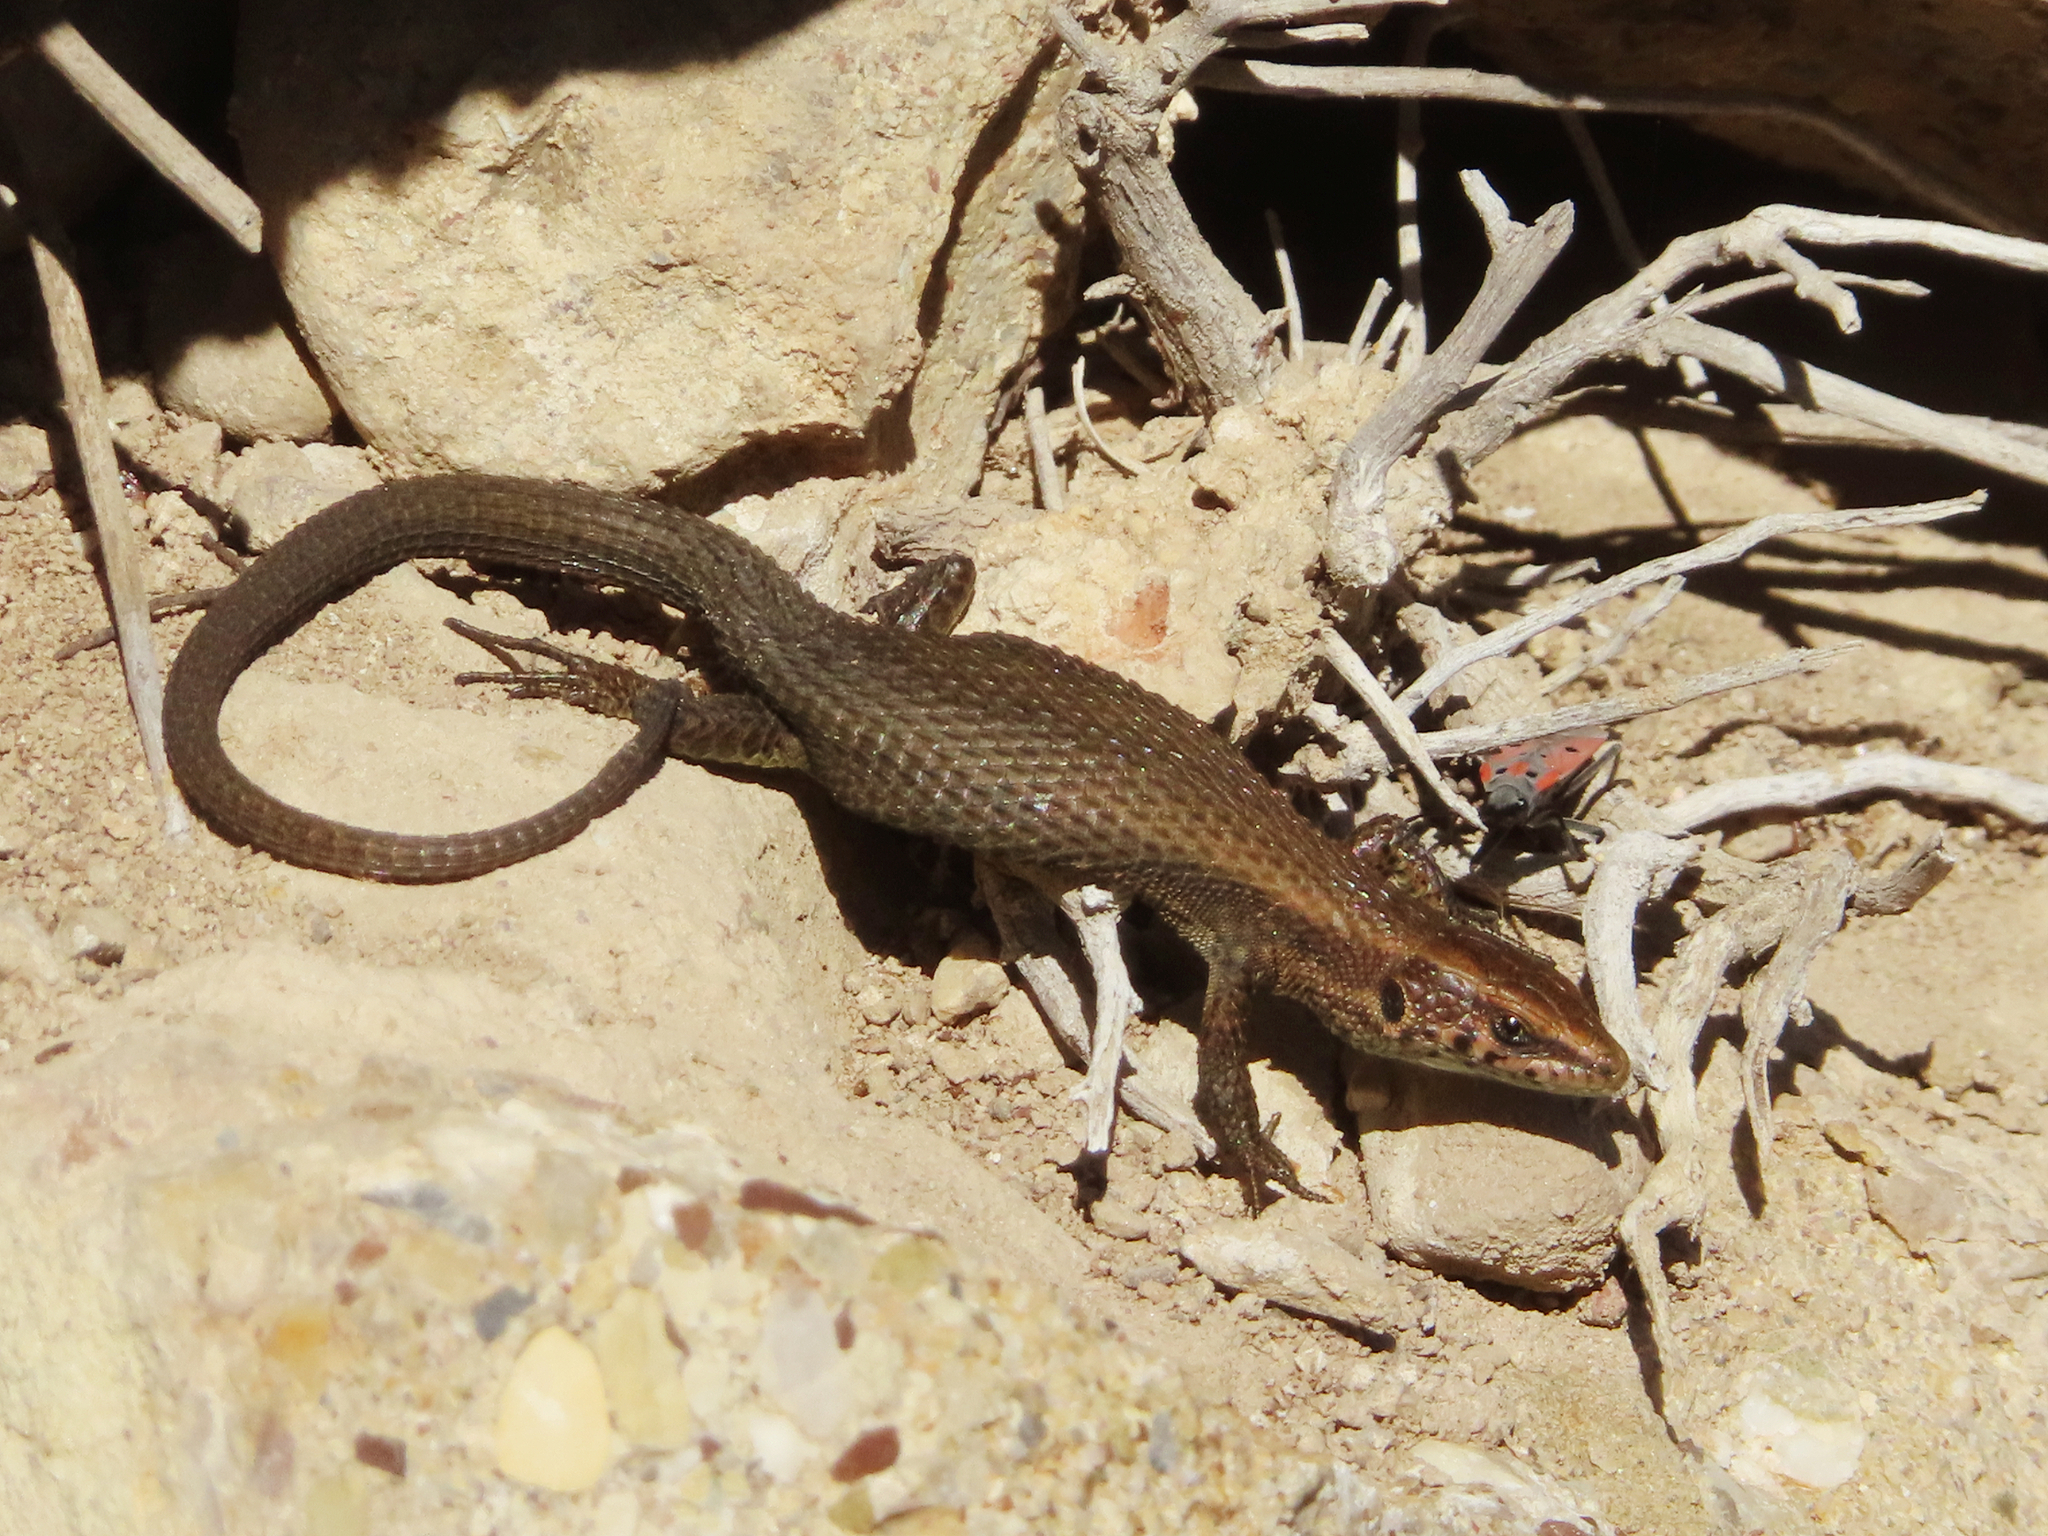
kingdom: Animalia
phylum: Chordata
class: Squamata
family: Lacertidae
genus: Algyroides
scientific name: Algyroides moreoticus
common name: Greek algyroides
